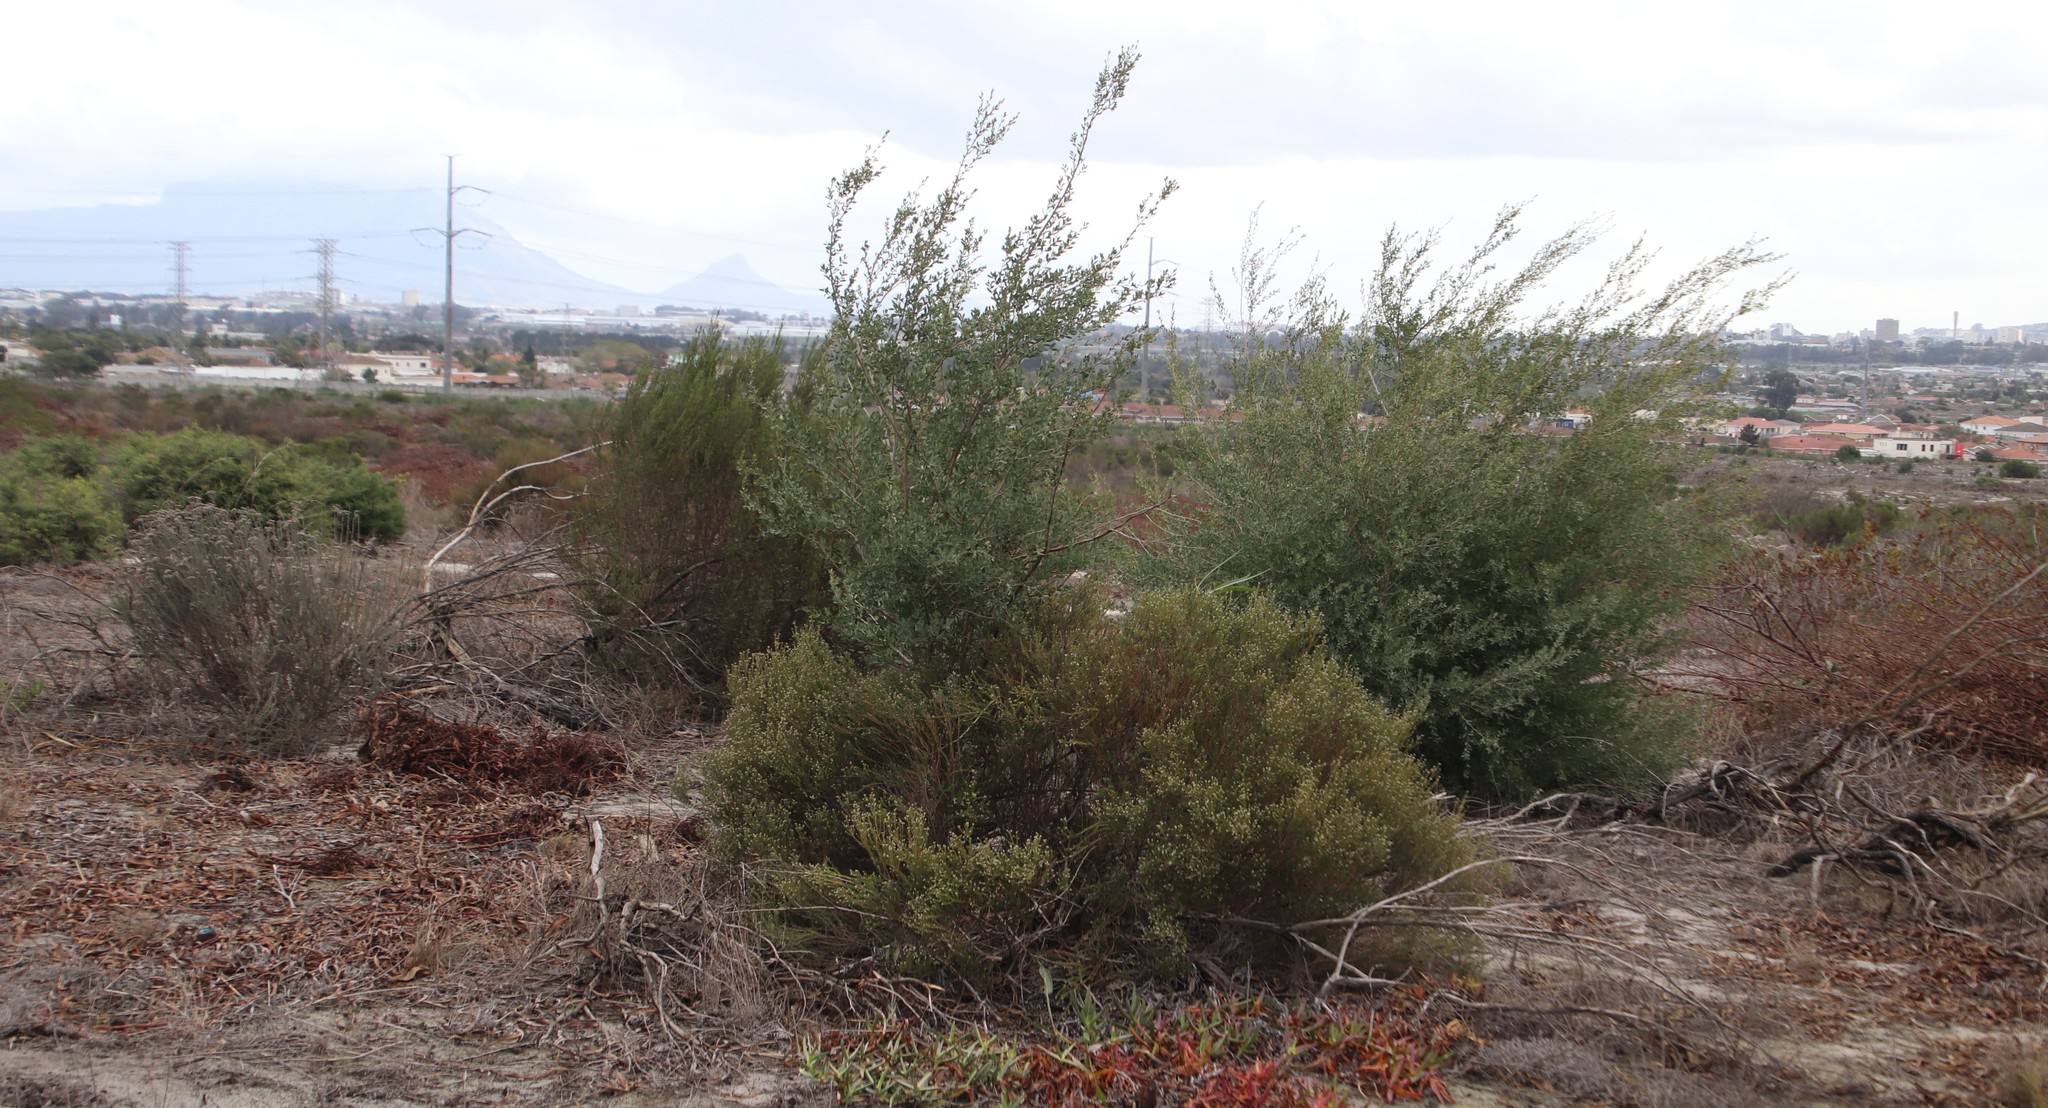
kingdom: Plantae
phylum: Tracheophyta
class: Magnoliopsida
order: Myrtales
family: Myrtaceae
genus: Leptospermum
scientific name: Leptospermum laevigatum
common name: Australian teatree
